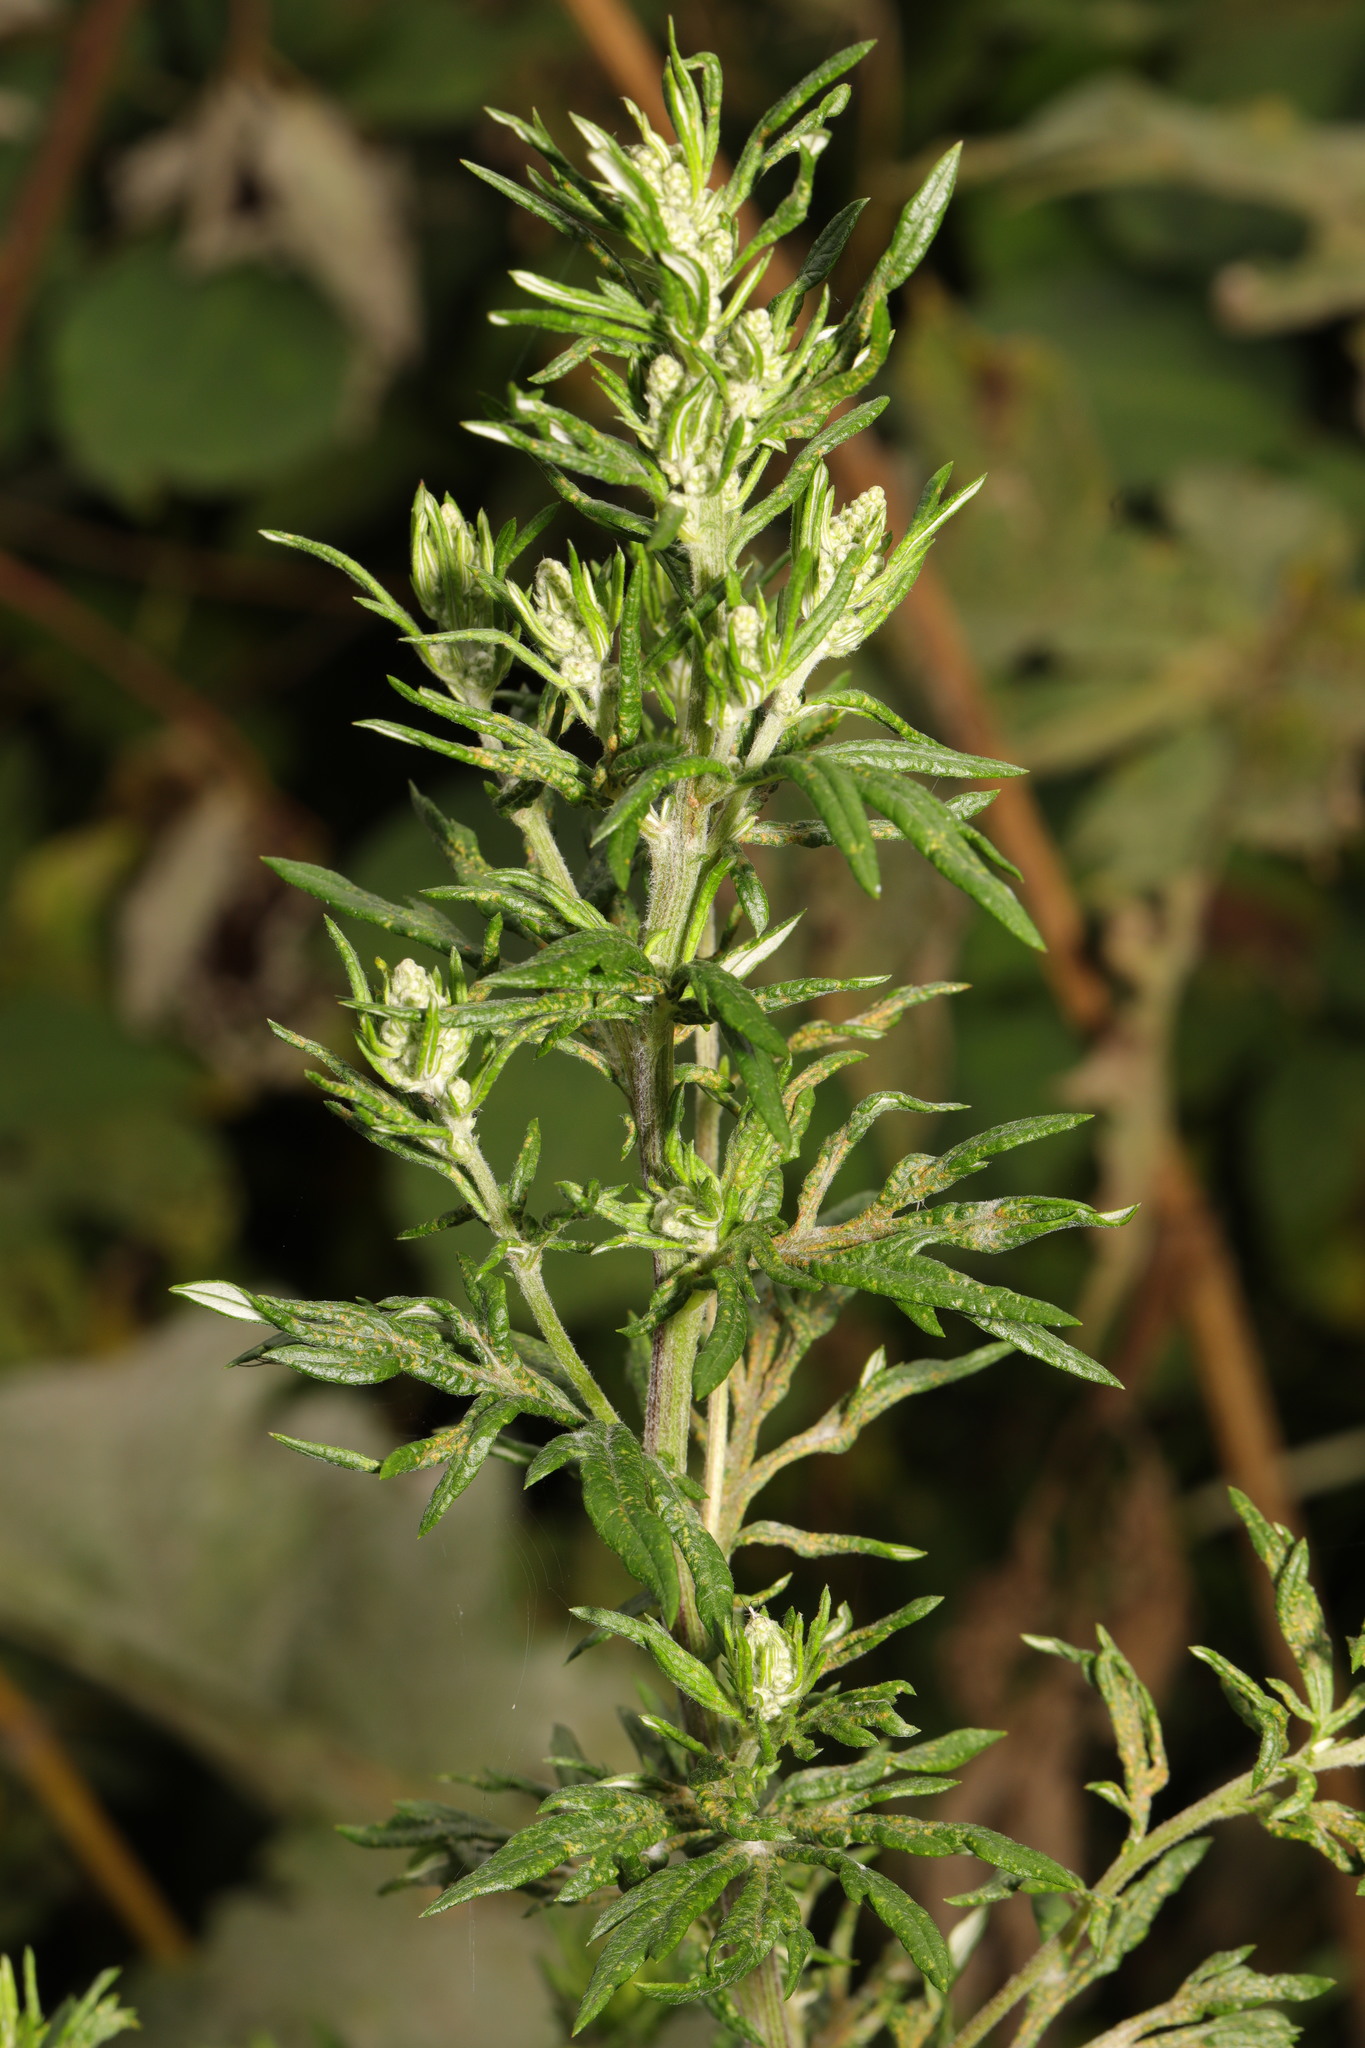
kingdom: Plantae
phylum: Tracheophyta
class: Magnoliopsida
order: Asterales
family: Asteraceae
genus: Artemisia
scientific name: Artemisia vulgaris
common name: Mugwort
